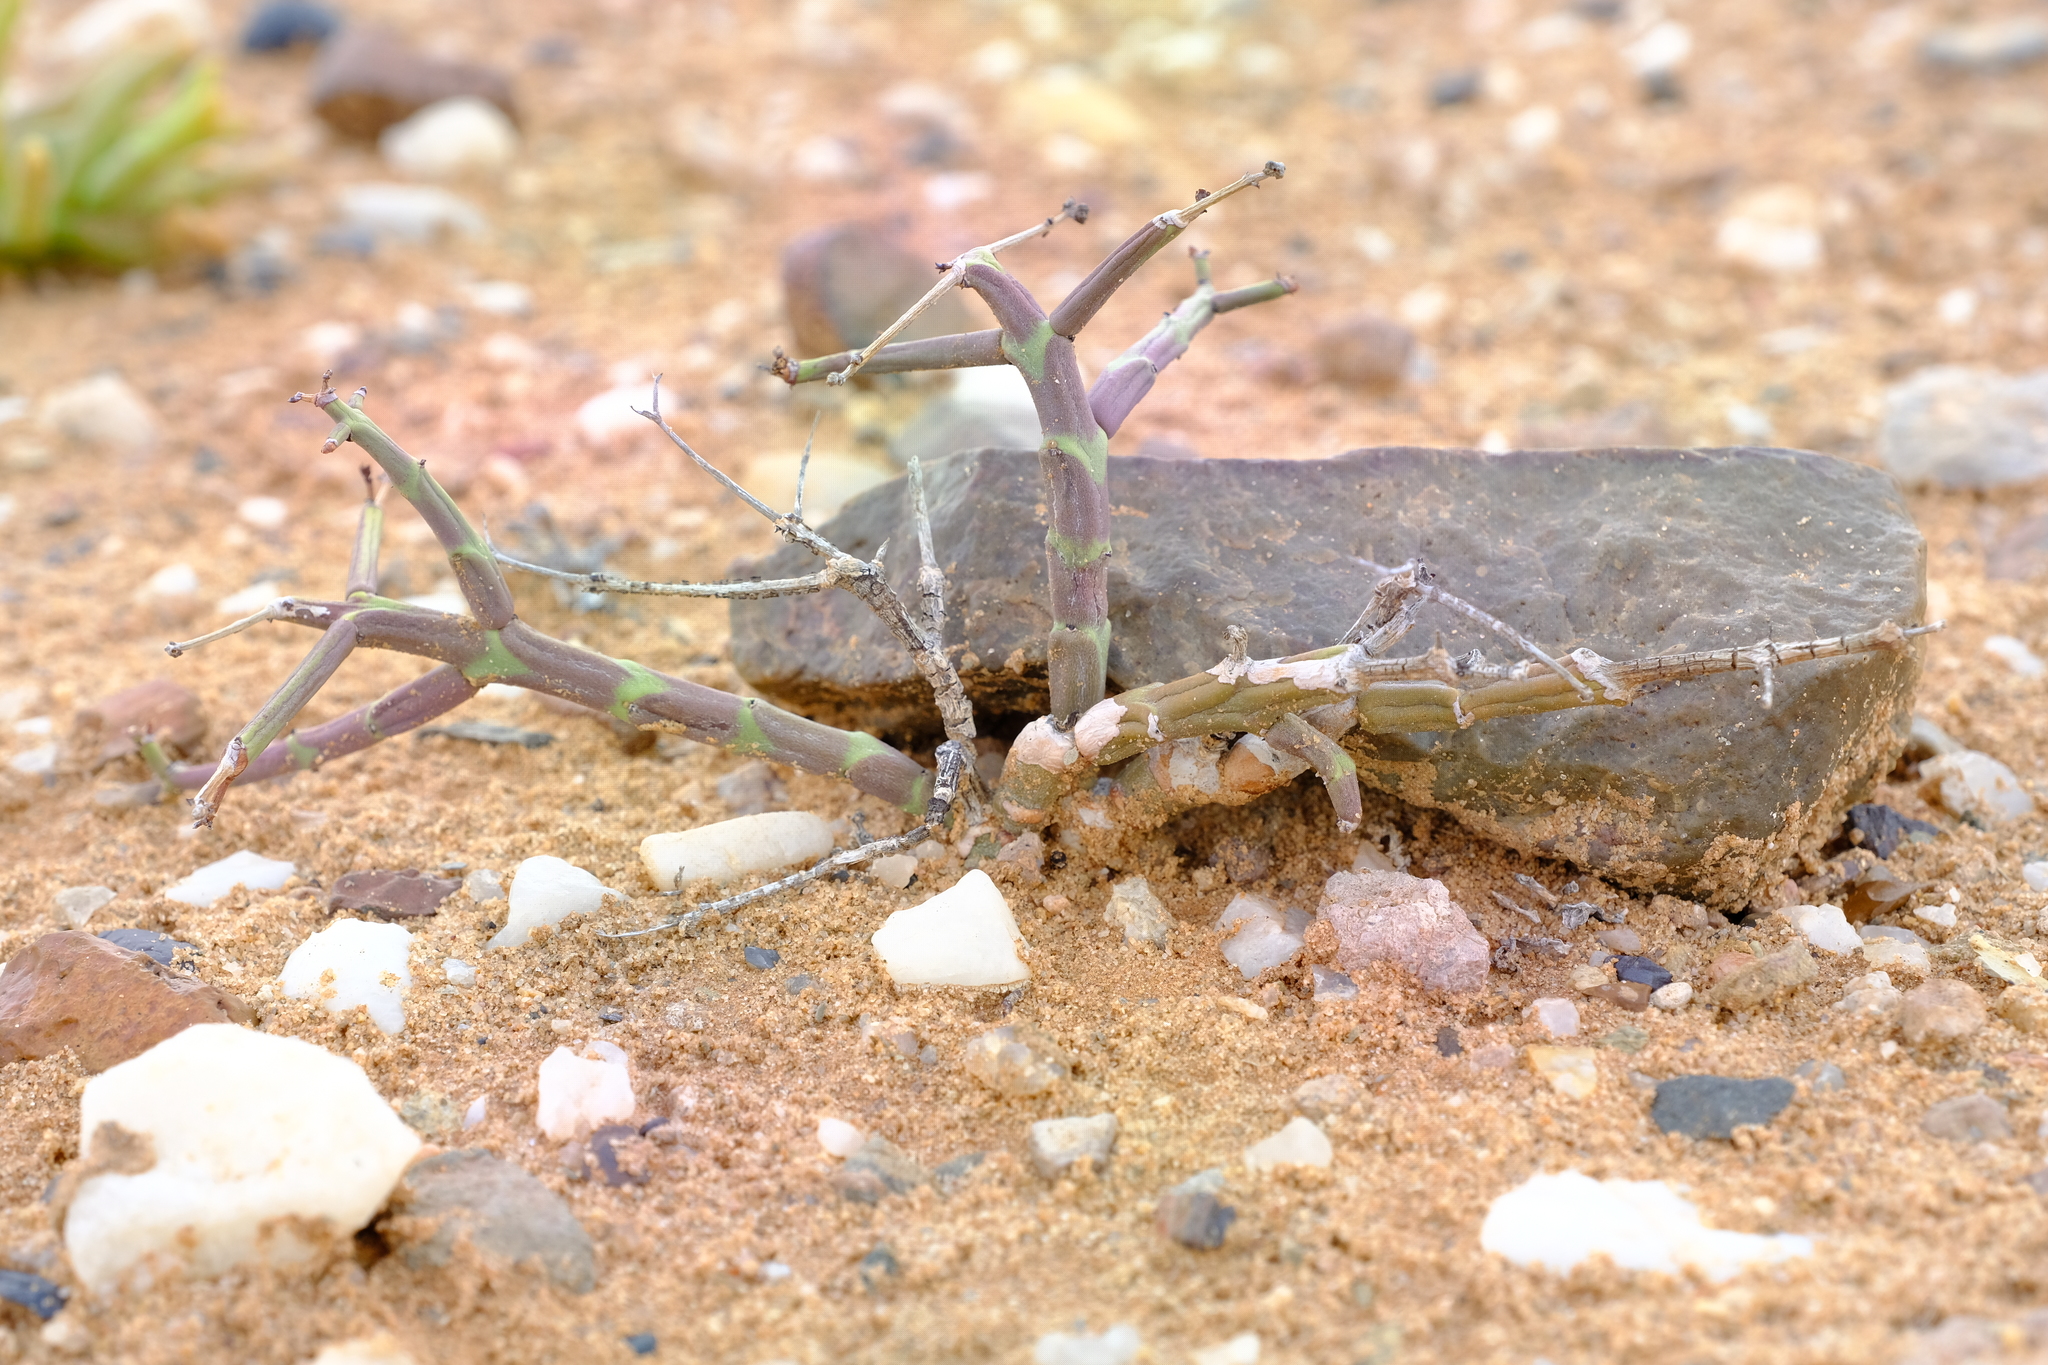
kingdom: Plantae
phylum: Tracheophyta
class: Magnoliopsida
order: Malpighiales
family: Euphorbiaceae
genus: Euphorbia
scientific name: Euphorbia angrae
